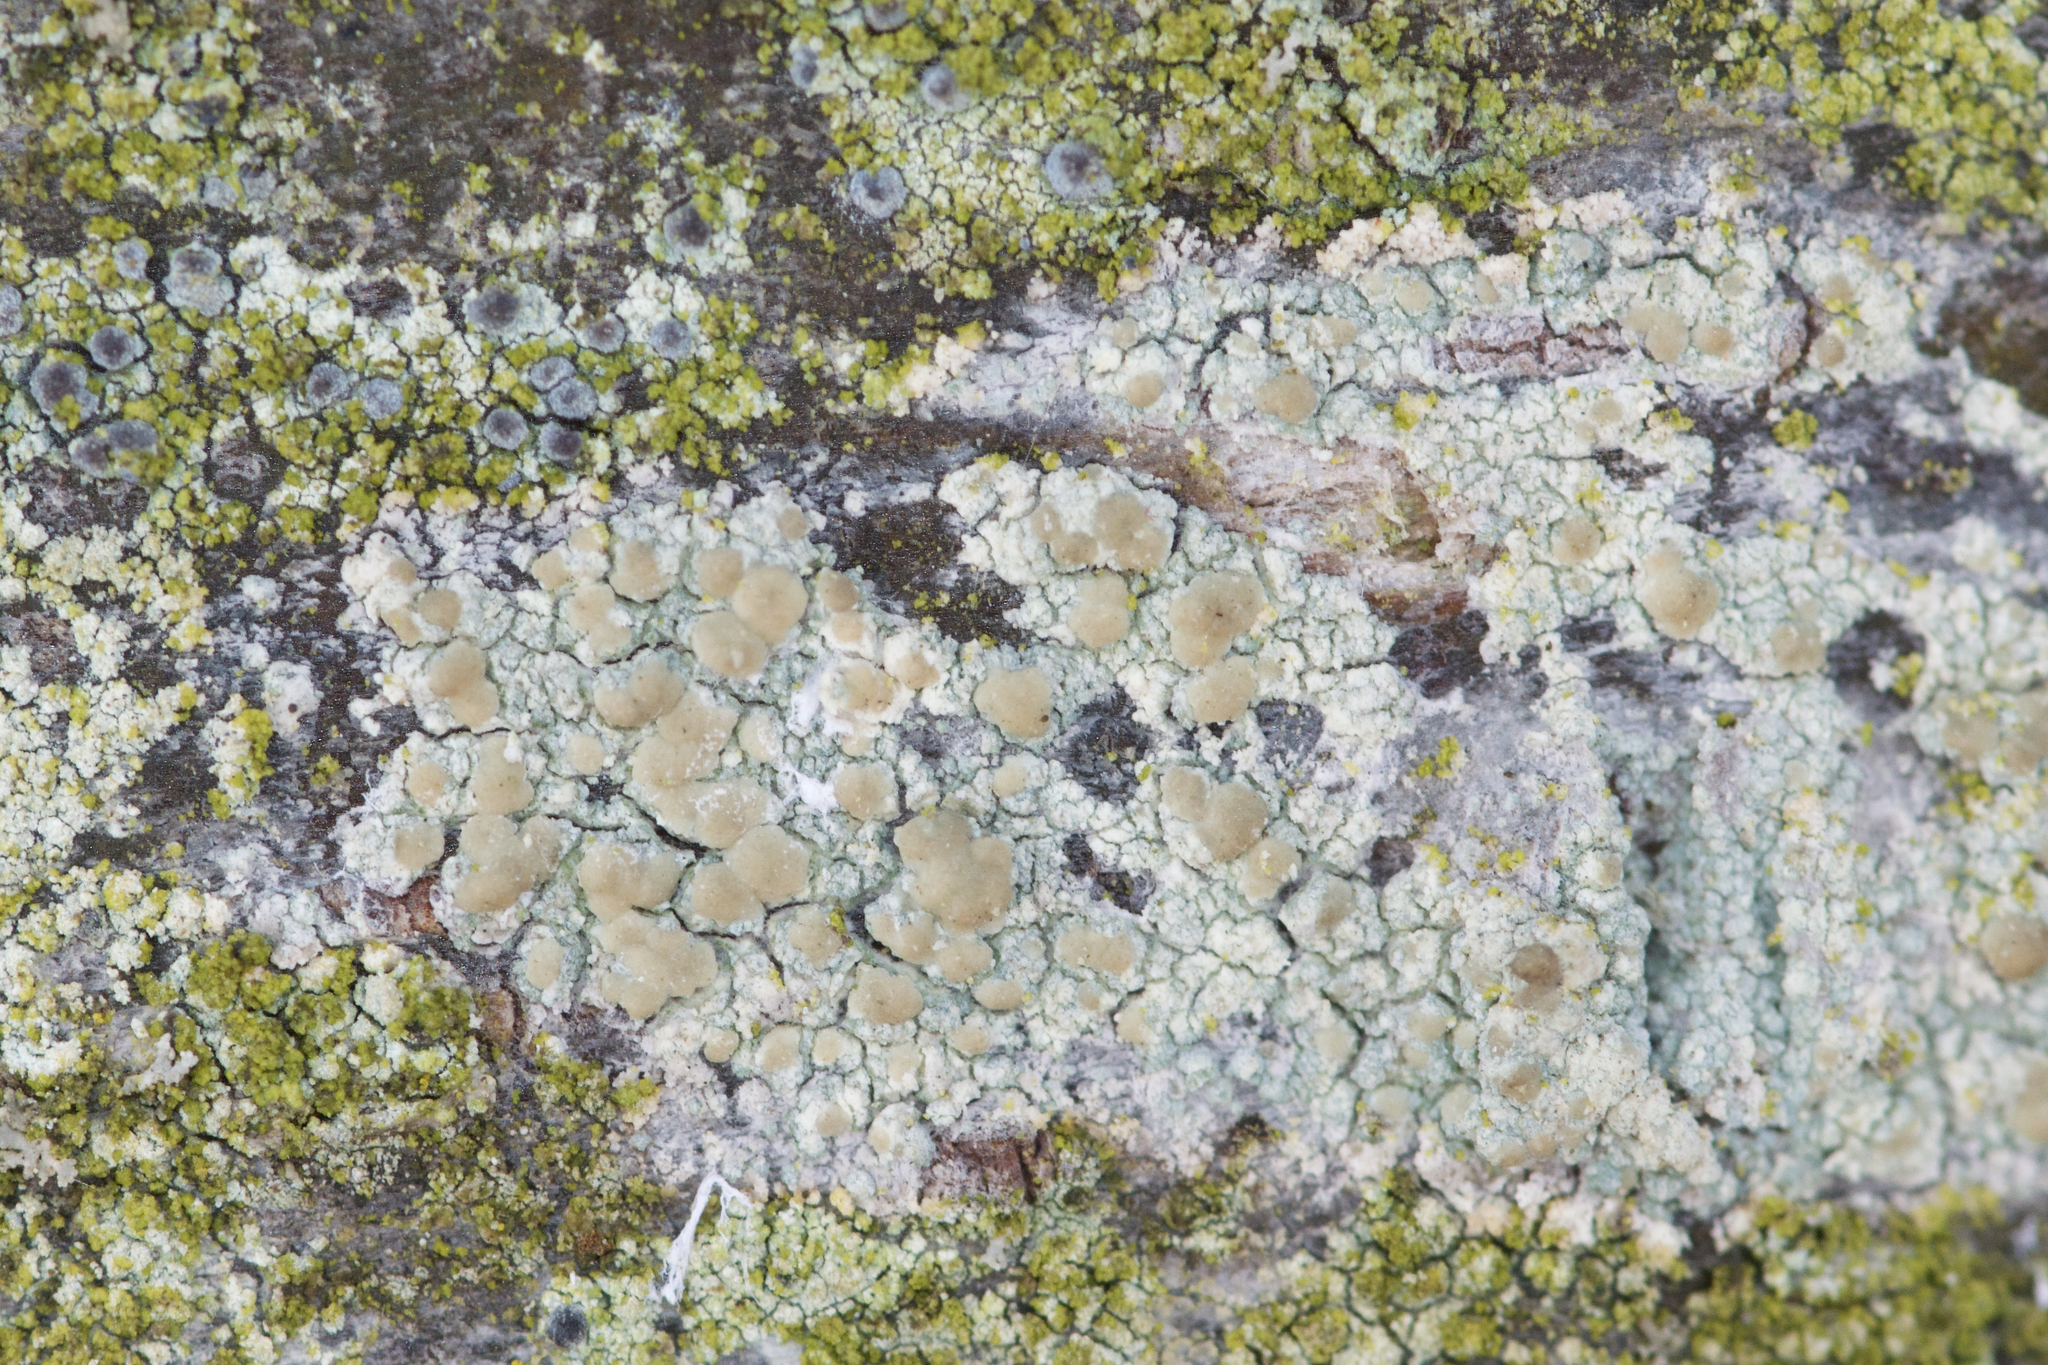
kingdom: Fungi
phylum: Ascomycota
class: Lecanoromycetes
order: Lecanorales
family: Lecanoraceae
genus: Lecanora
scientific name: Lecanora symmicta
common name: Fused rim lichen
